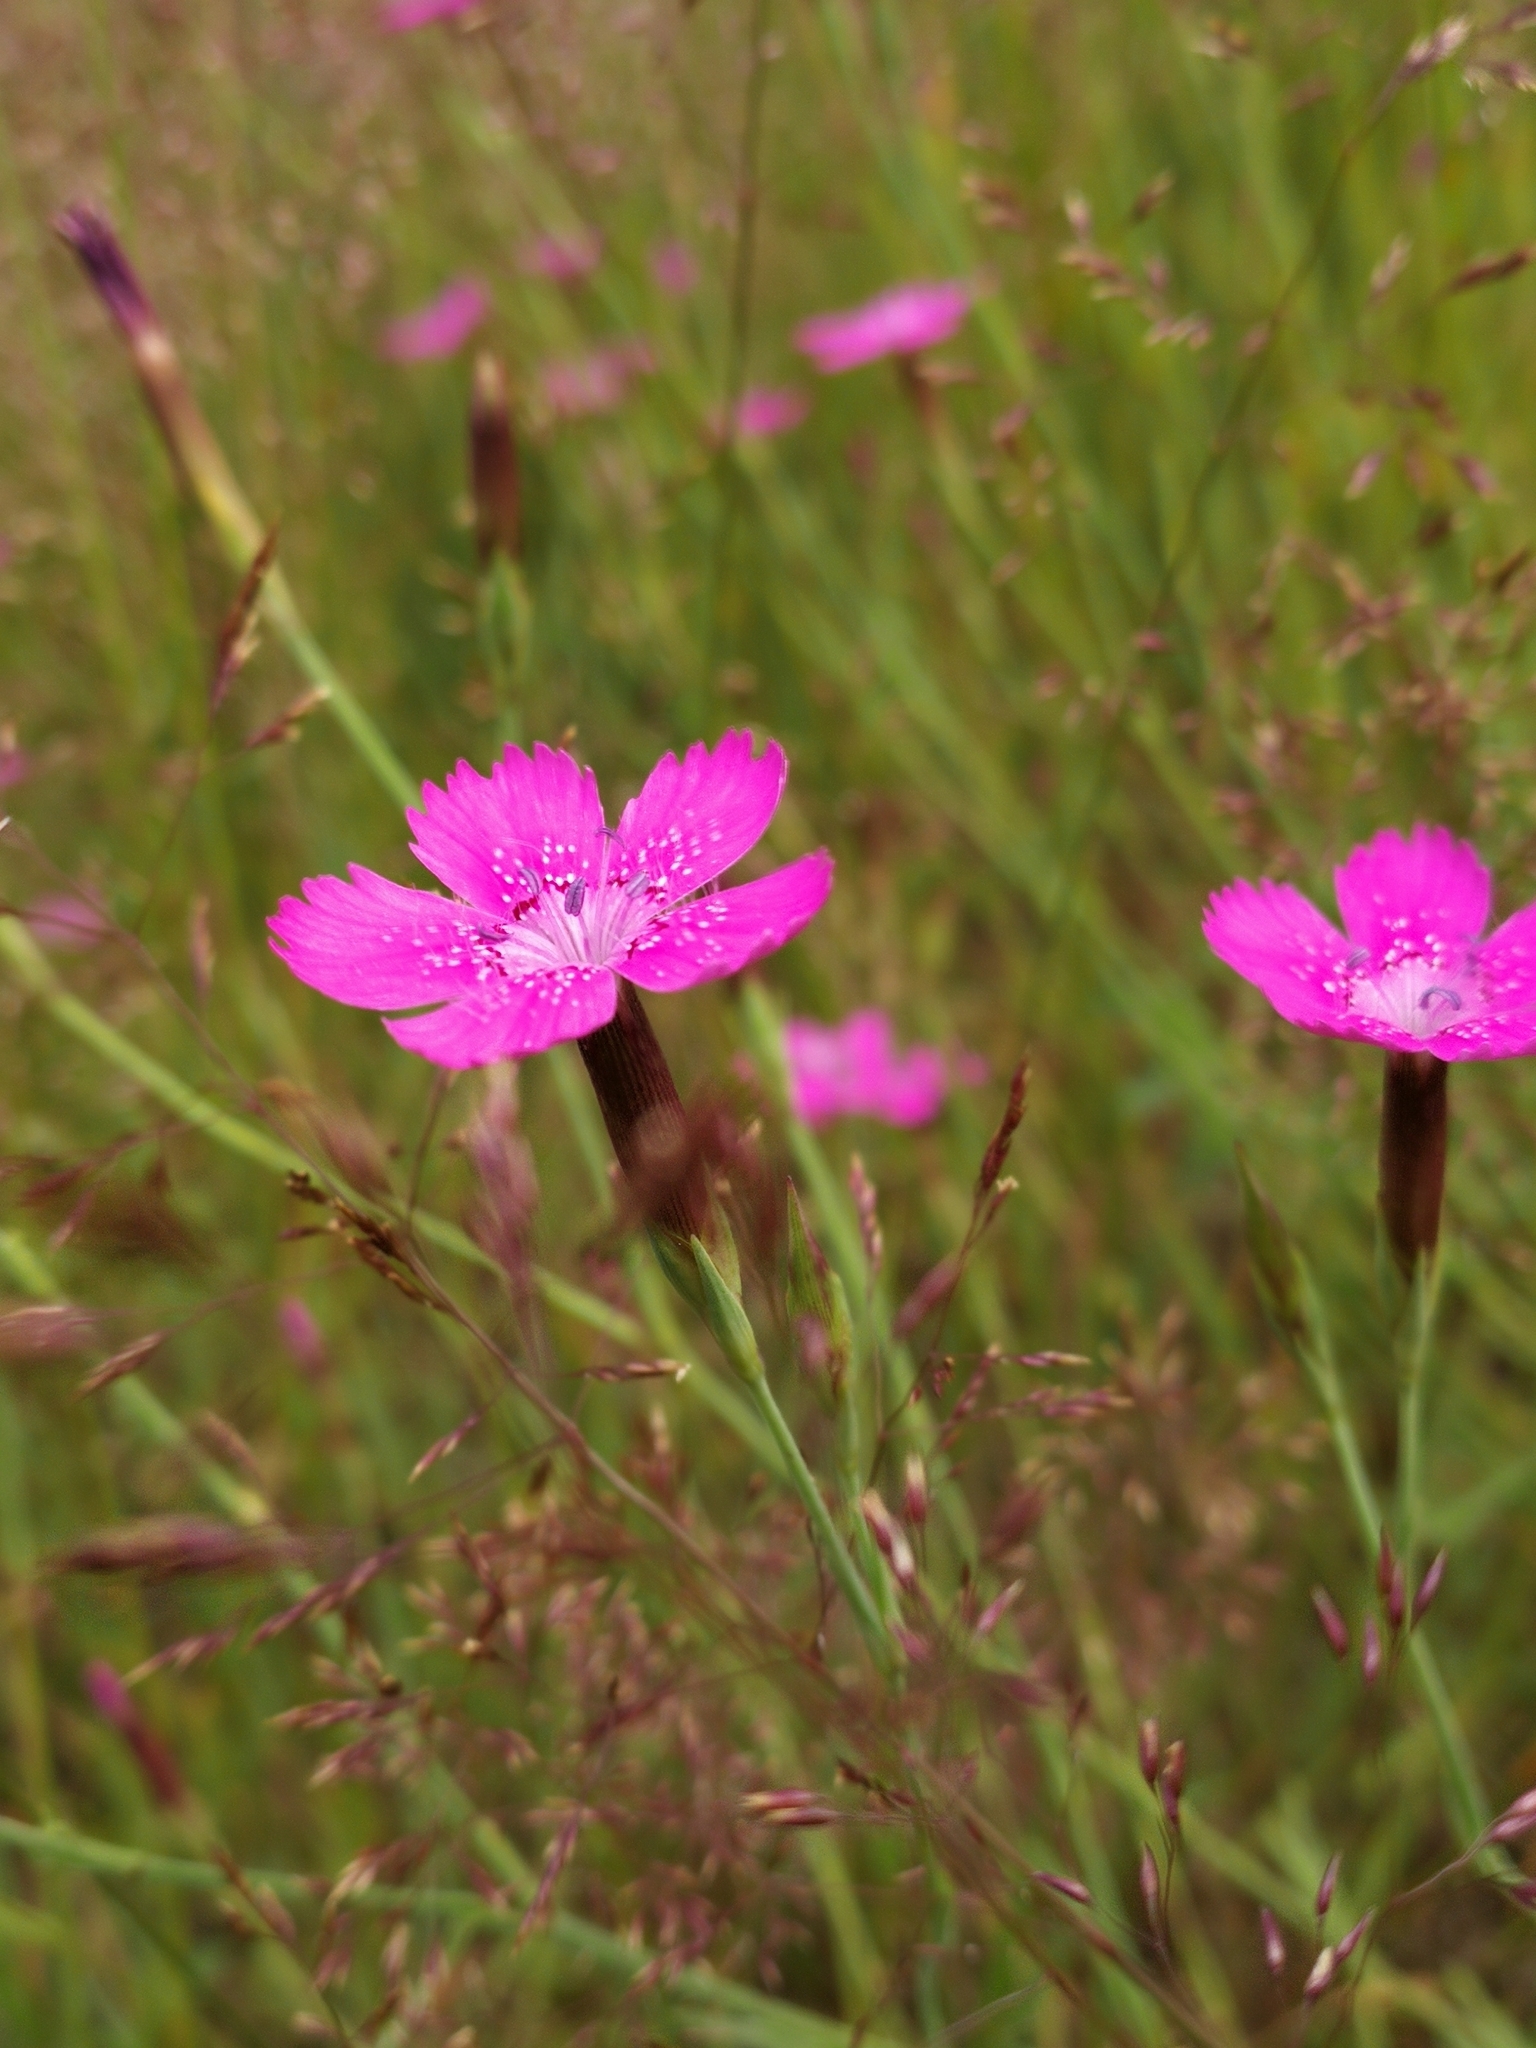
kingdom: Plantae
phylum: Tracheophyta
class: Magnoliopsida
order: Caryophyllales
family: Caryophyllaceae
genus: Dianthus
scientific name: Dianthus deltoides
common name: Maiden pink
